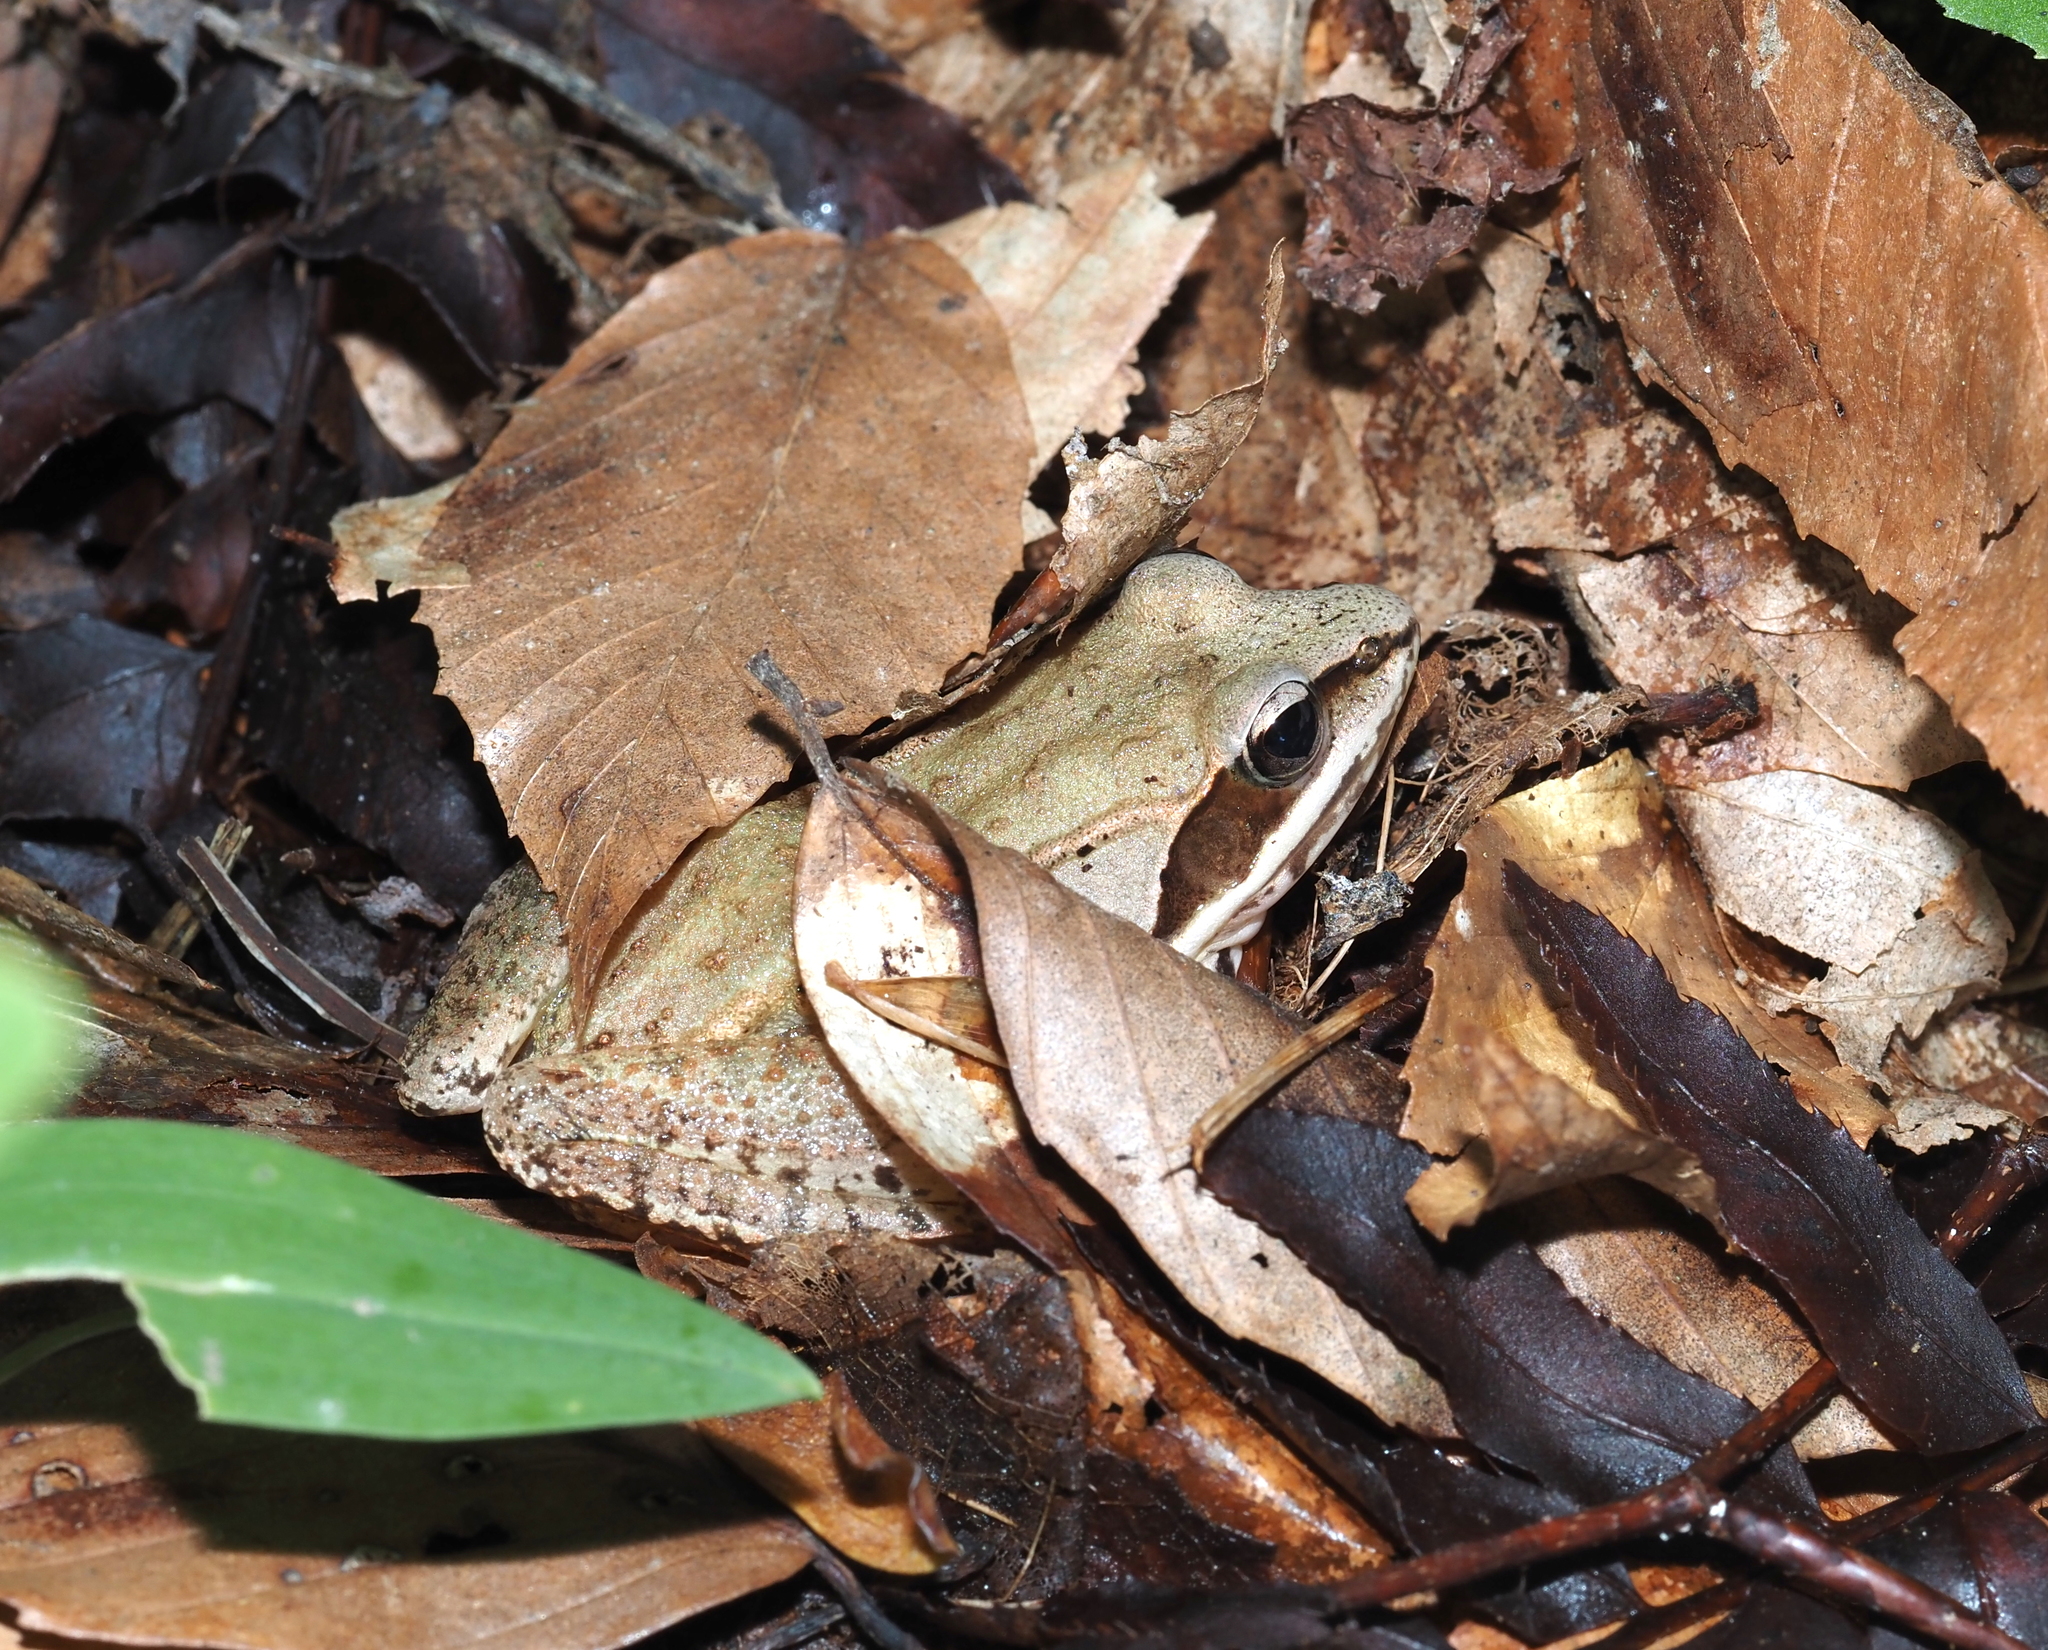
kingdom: Animalia
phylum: Chordata
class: Amphibia
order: Anura
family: Ranidae
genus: Lithobates
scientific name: Lithobates sylvaticus
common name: Wood frog
